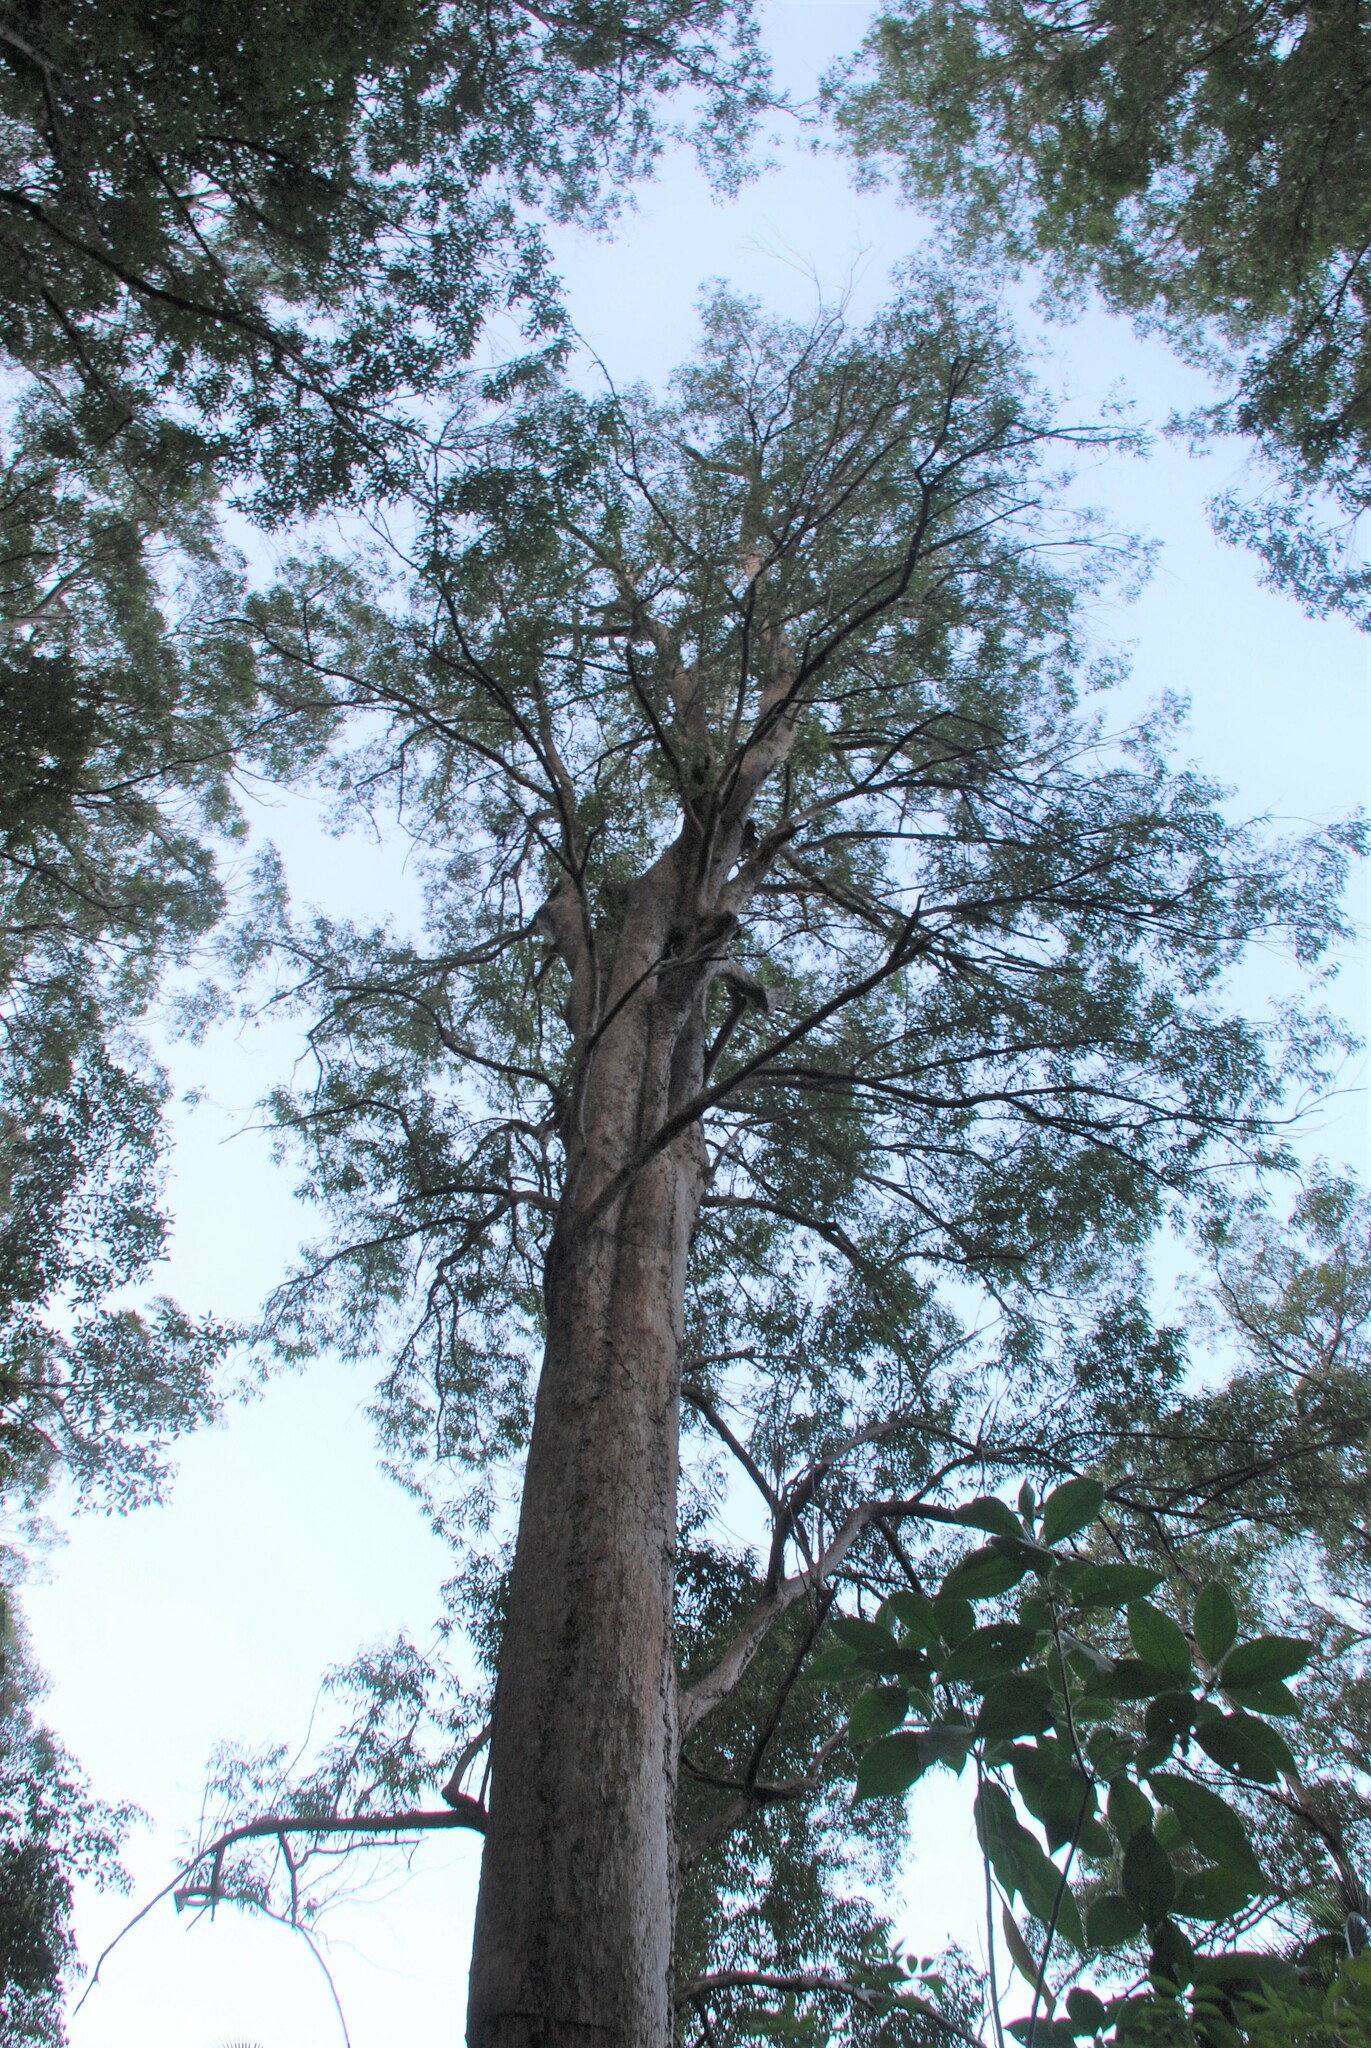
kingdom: Plantae
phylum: Tracheophyta
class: Magnoliopsida
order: Myrtales
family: Myrtaceae
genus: Eucalyptus
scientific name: Eucalyptus microcorys
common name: Tallowwood
